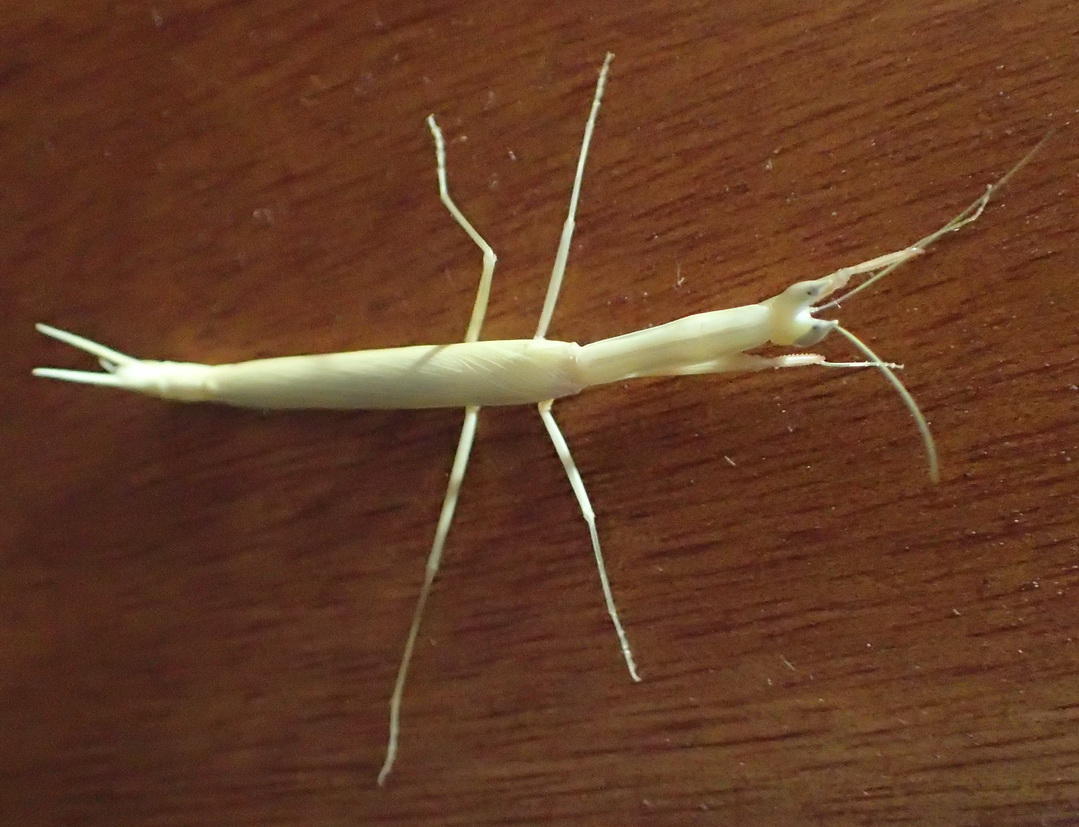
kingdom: Animalia
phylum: Arthropoda
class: Insecta
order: Mantodea
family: Eremiaphilidae
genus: Episcopomantis
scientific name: Episcopomantis chalybea
